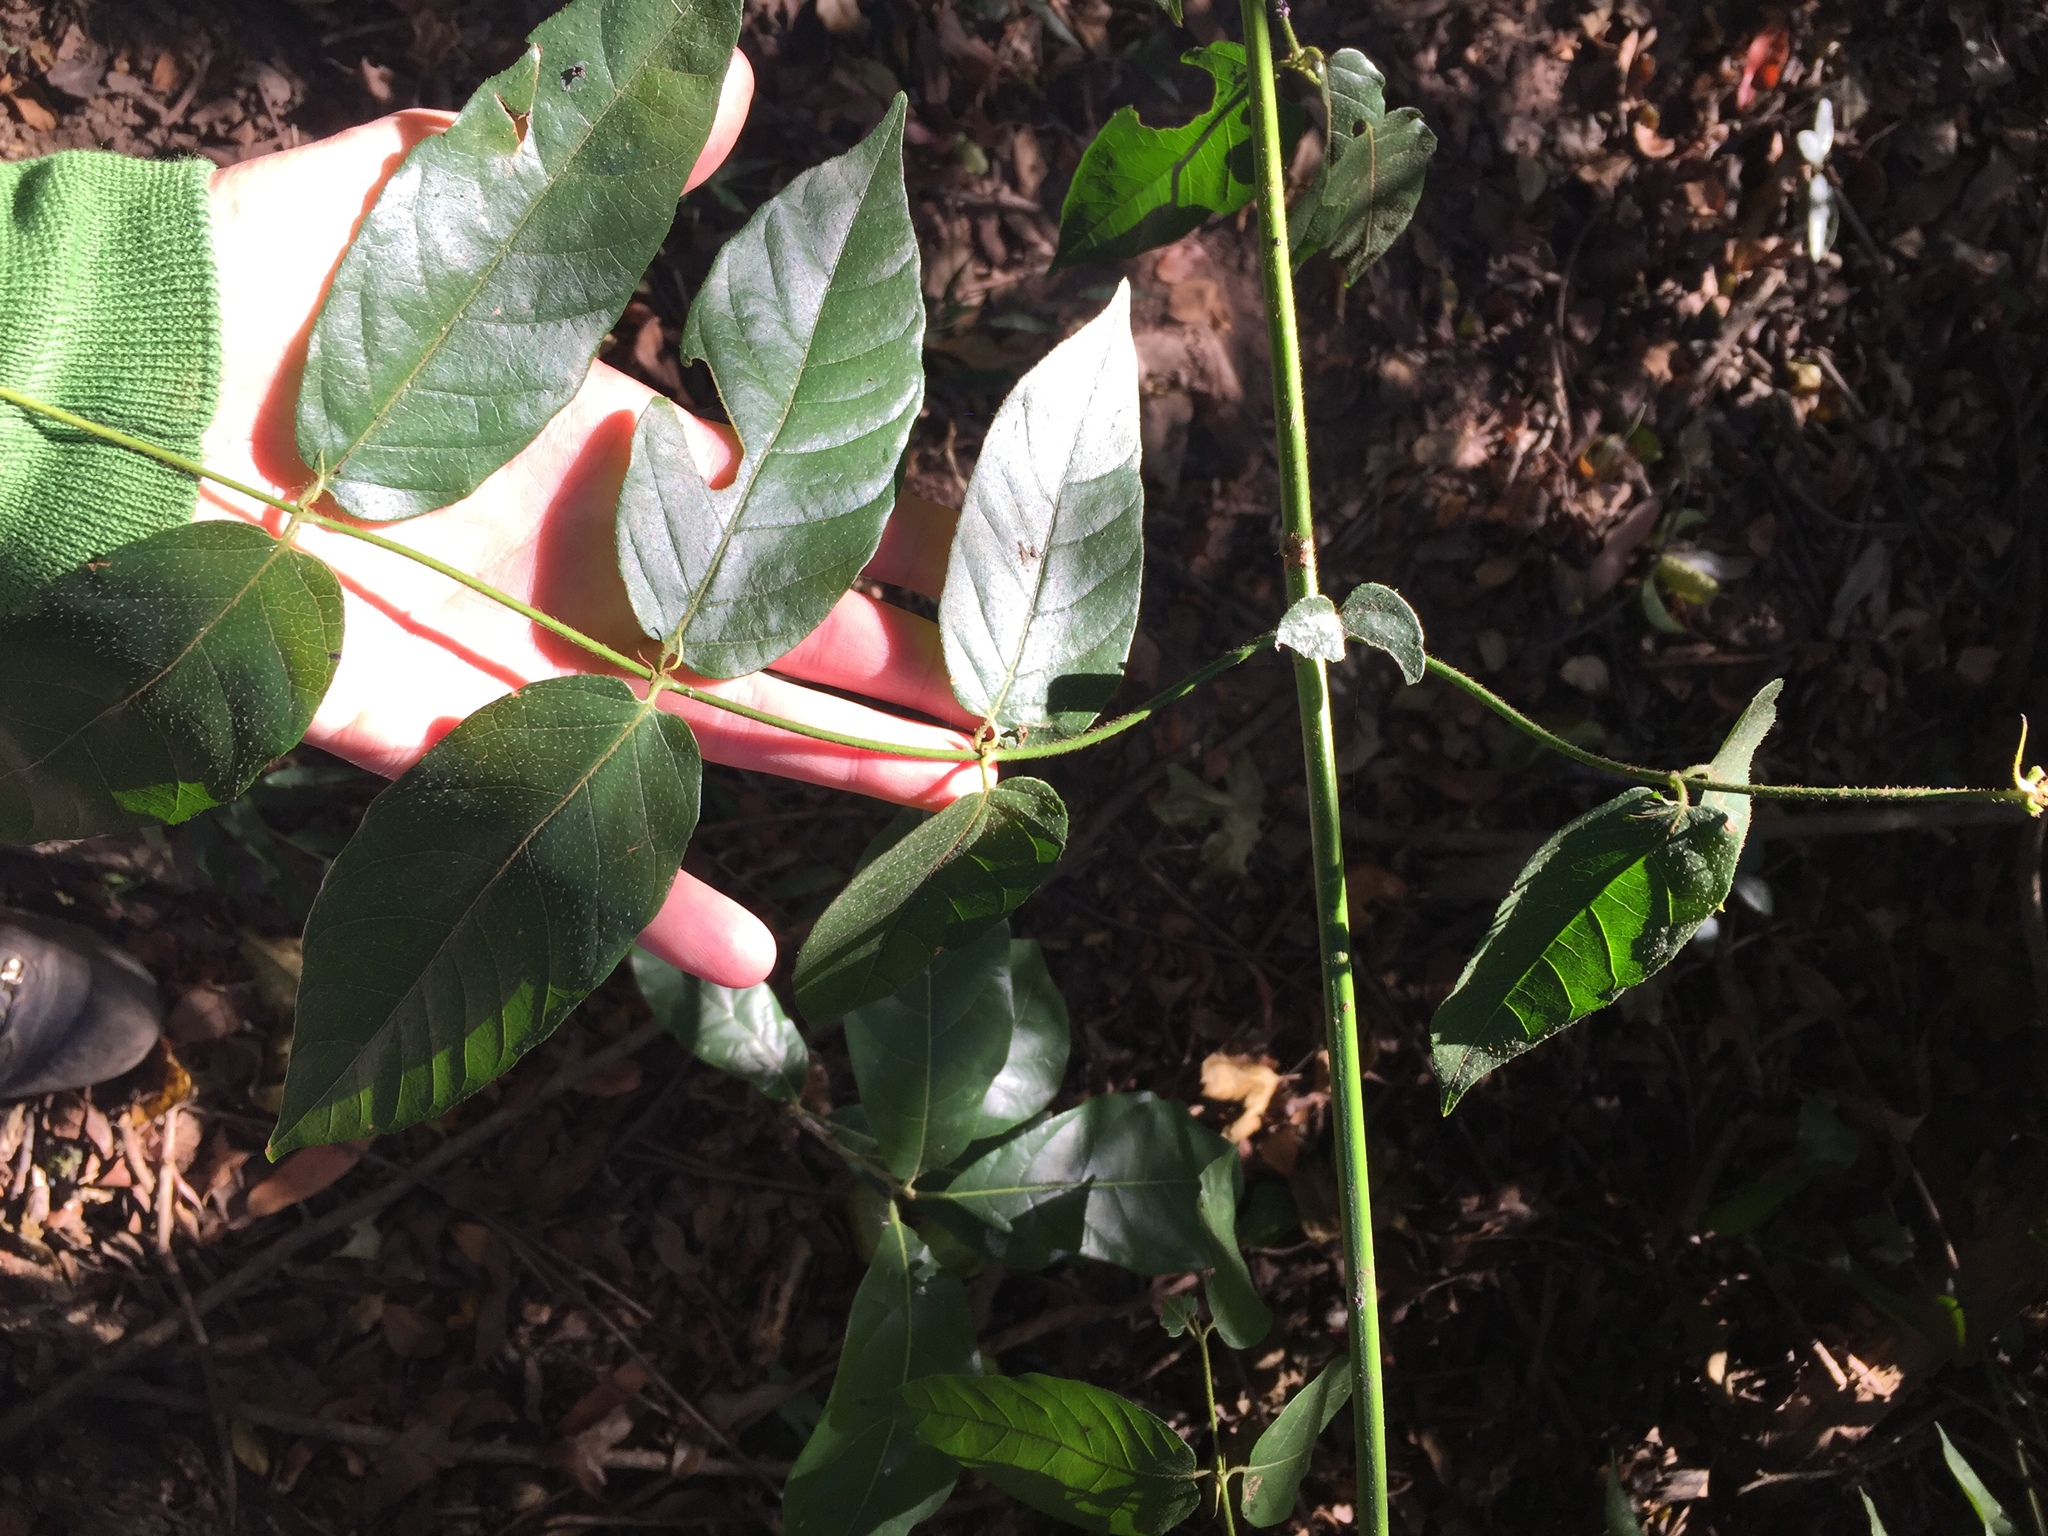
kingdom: Plantae
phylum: Tracheophyta
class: Magnoliopsida
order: Gentianales
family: Rubiaceae
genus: Keetia
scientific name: Keetia gueinzii
